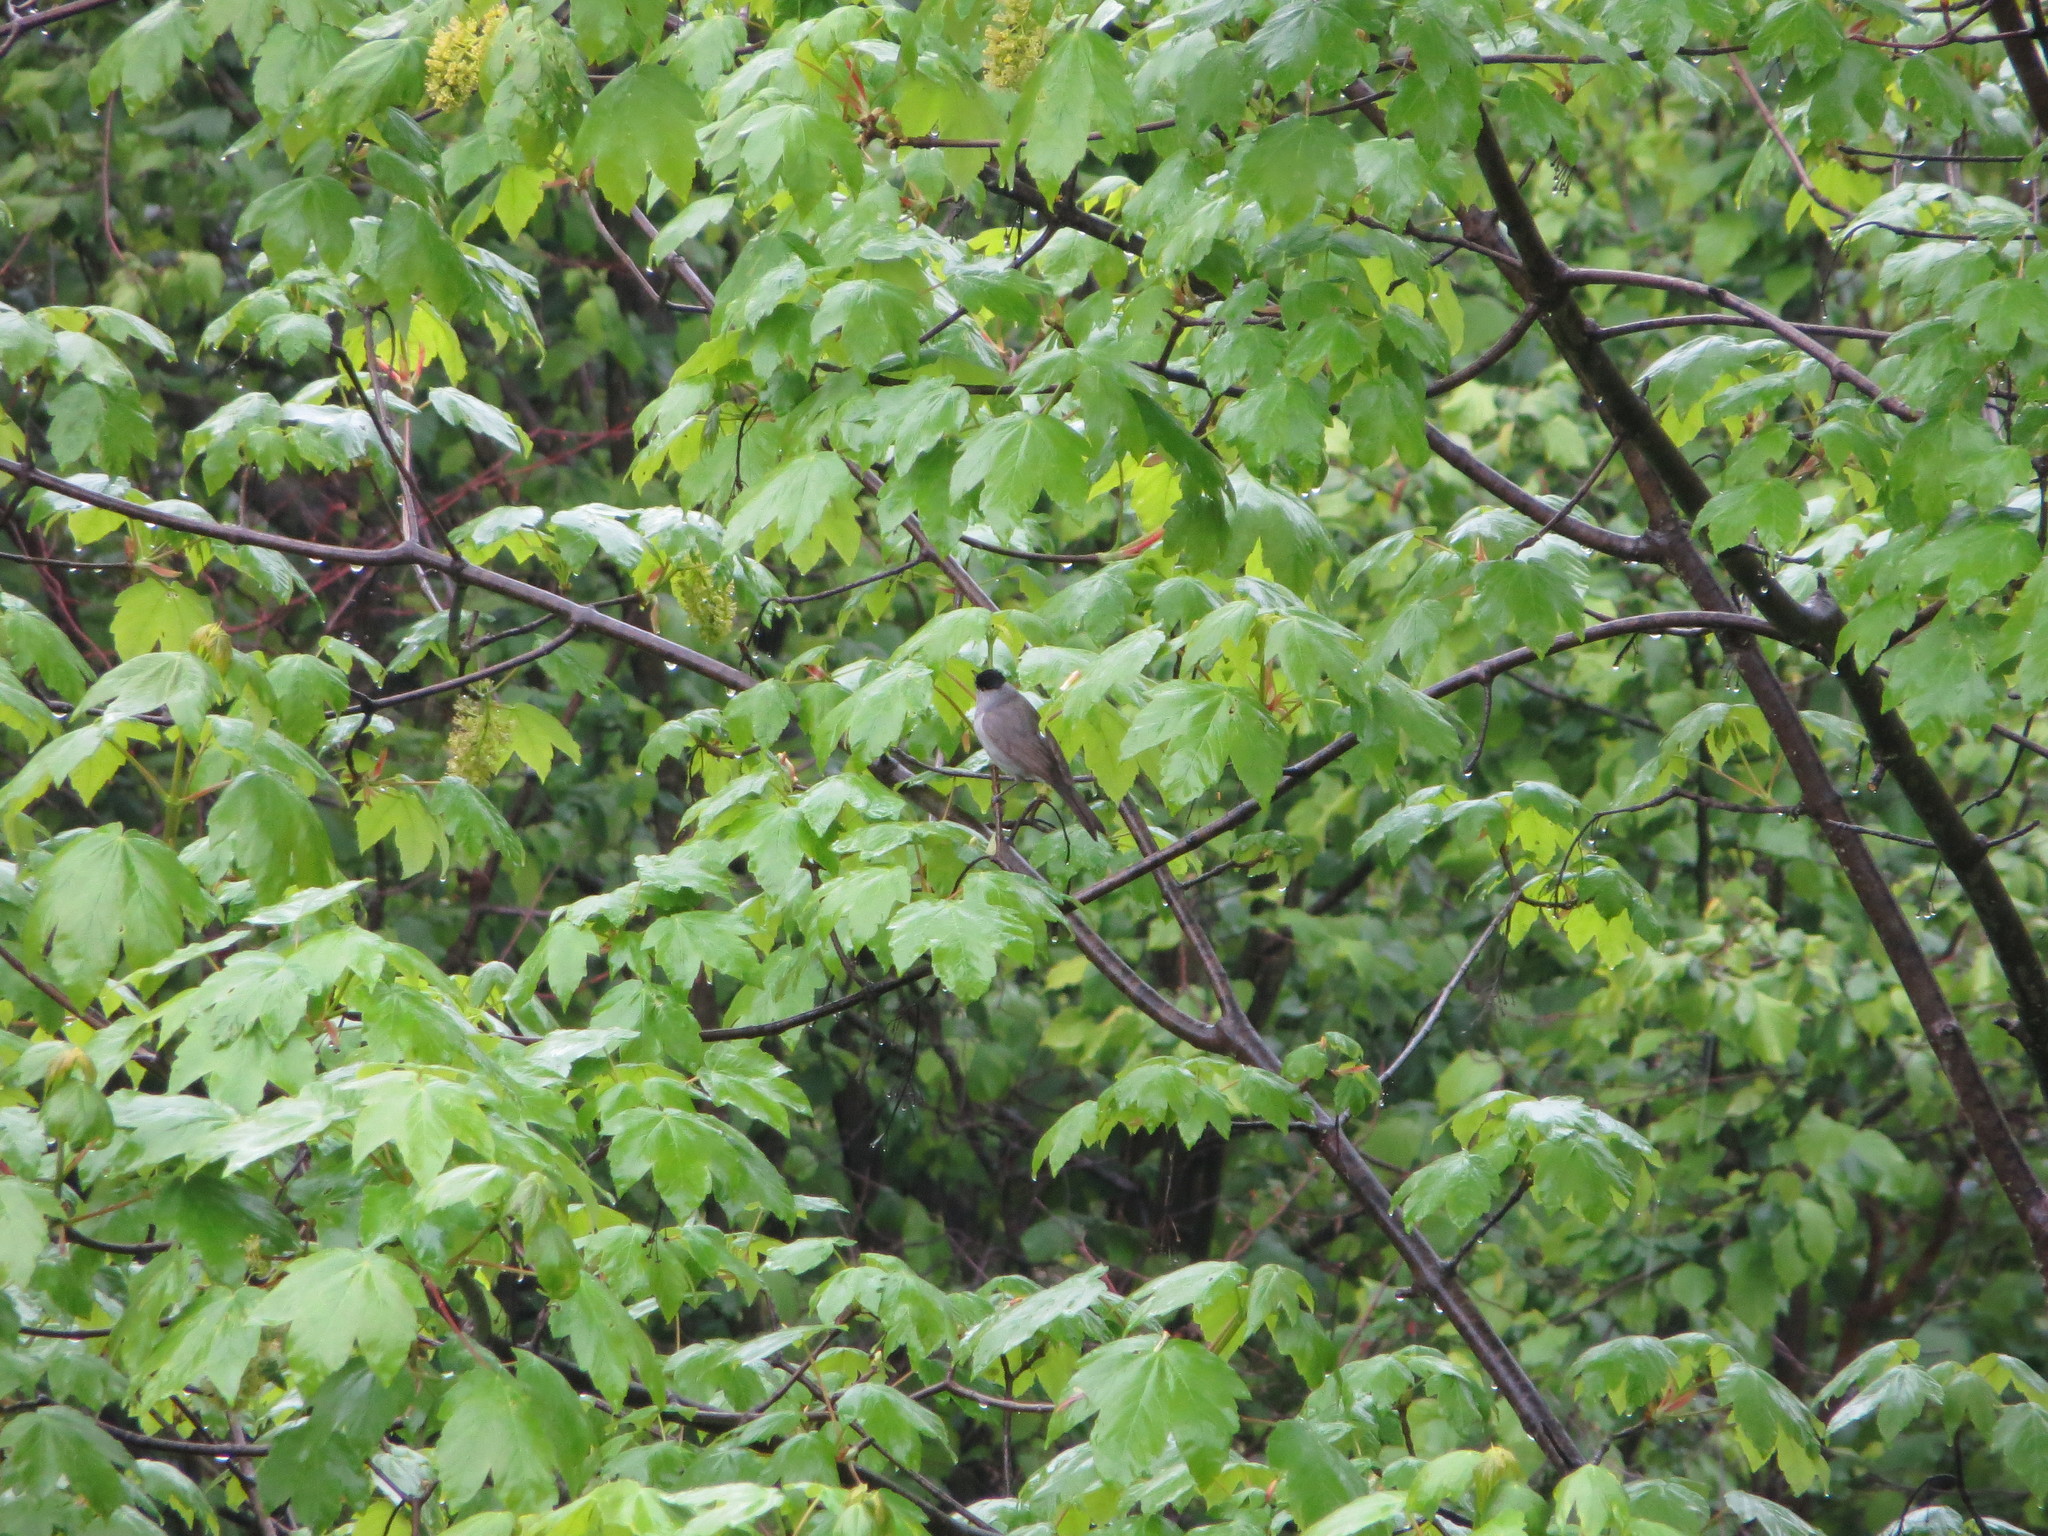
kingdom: Animalia
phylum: Chordata
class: Aves
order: Passeriformes
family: Sylviidae
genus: Sylvia
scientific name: Sylvia atricapilla
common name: Eurasian blackcap
